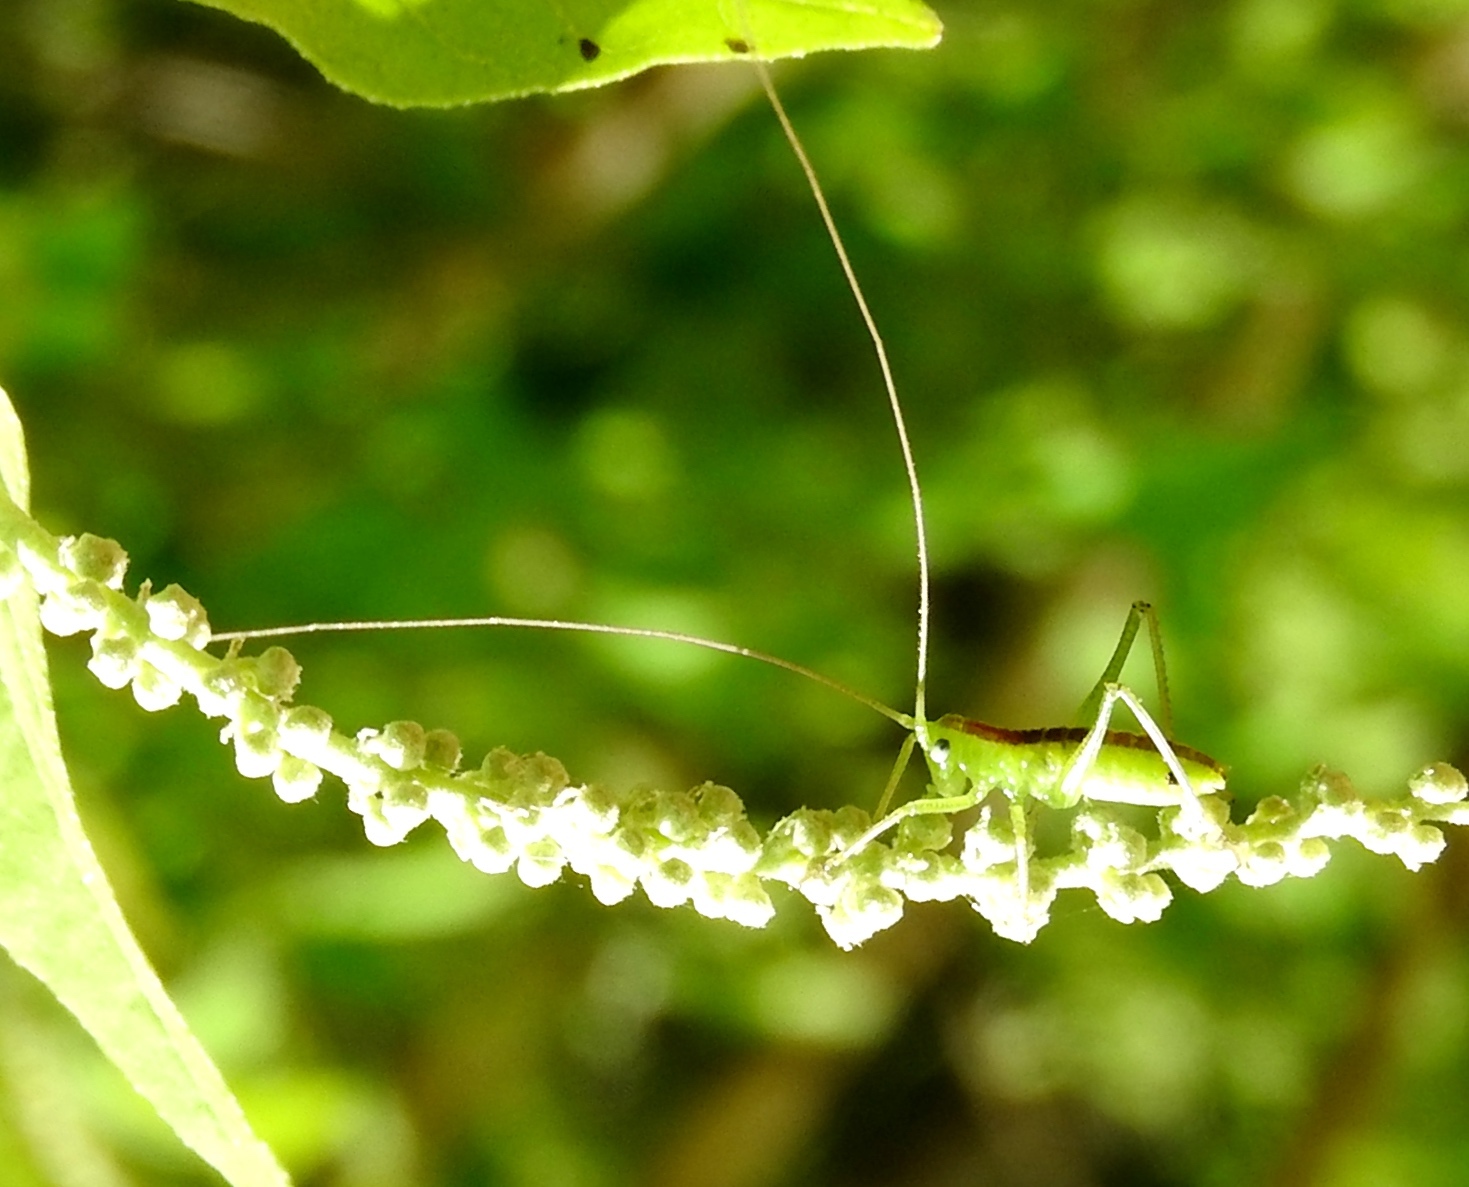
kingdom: Animalia
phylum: Arthropoda
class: Insecta
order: Orthoptera
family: Tettigoniidae
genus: Neobarrettia
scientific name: Neobarrettia sinaloae
